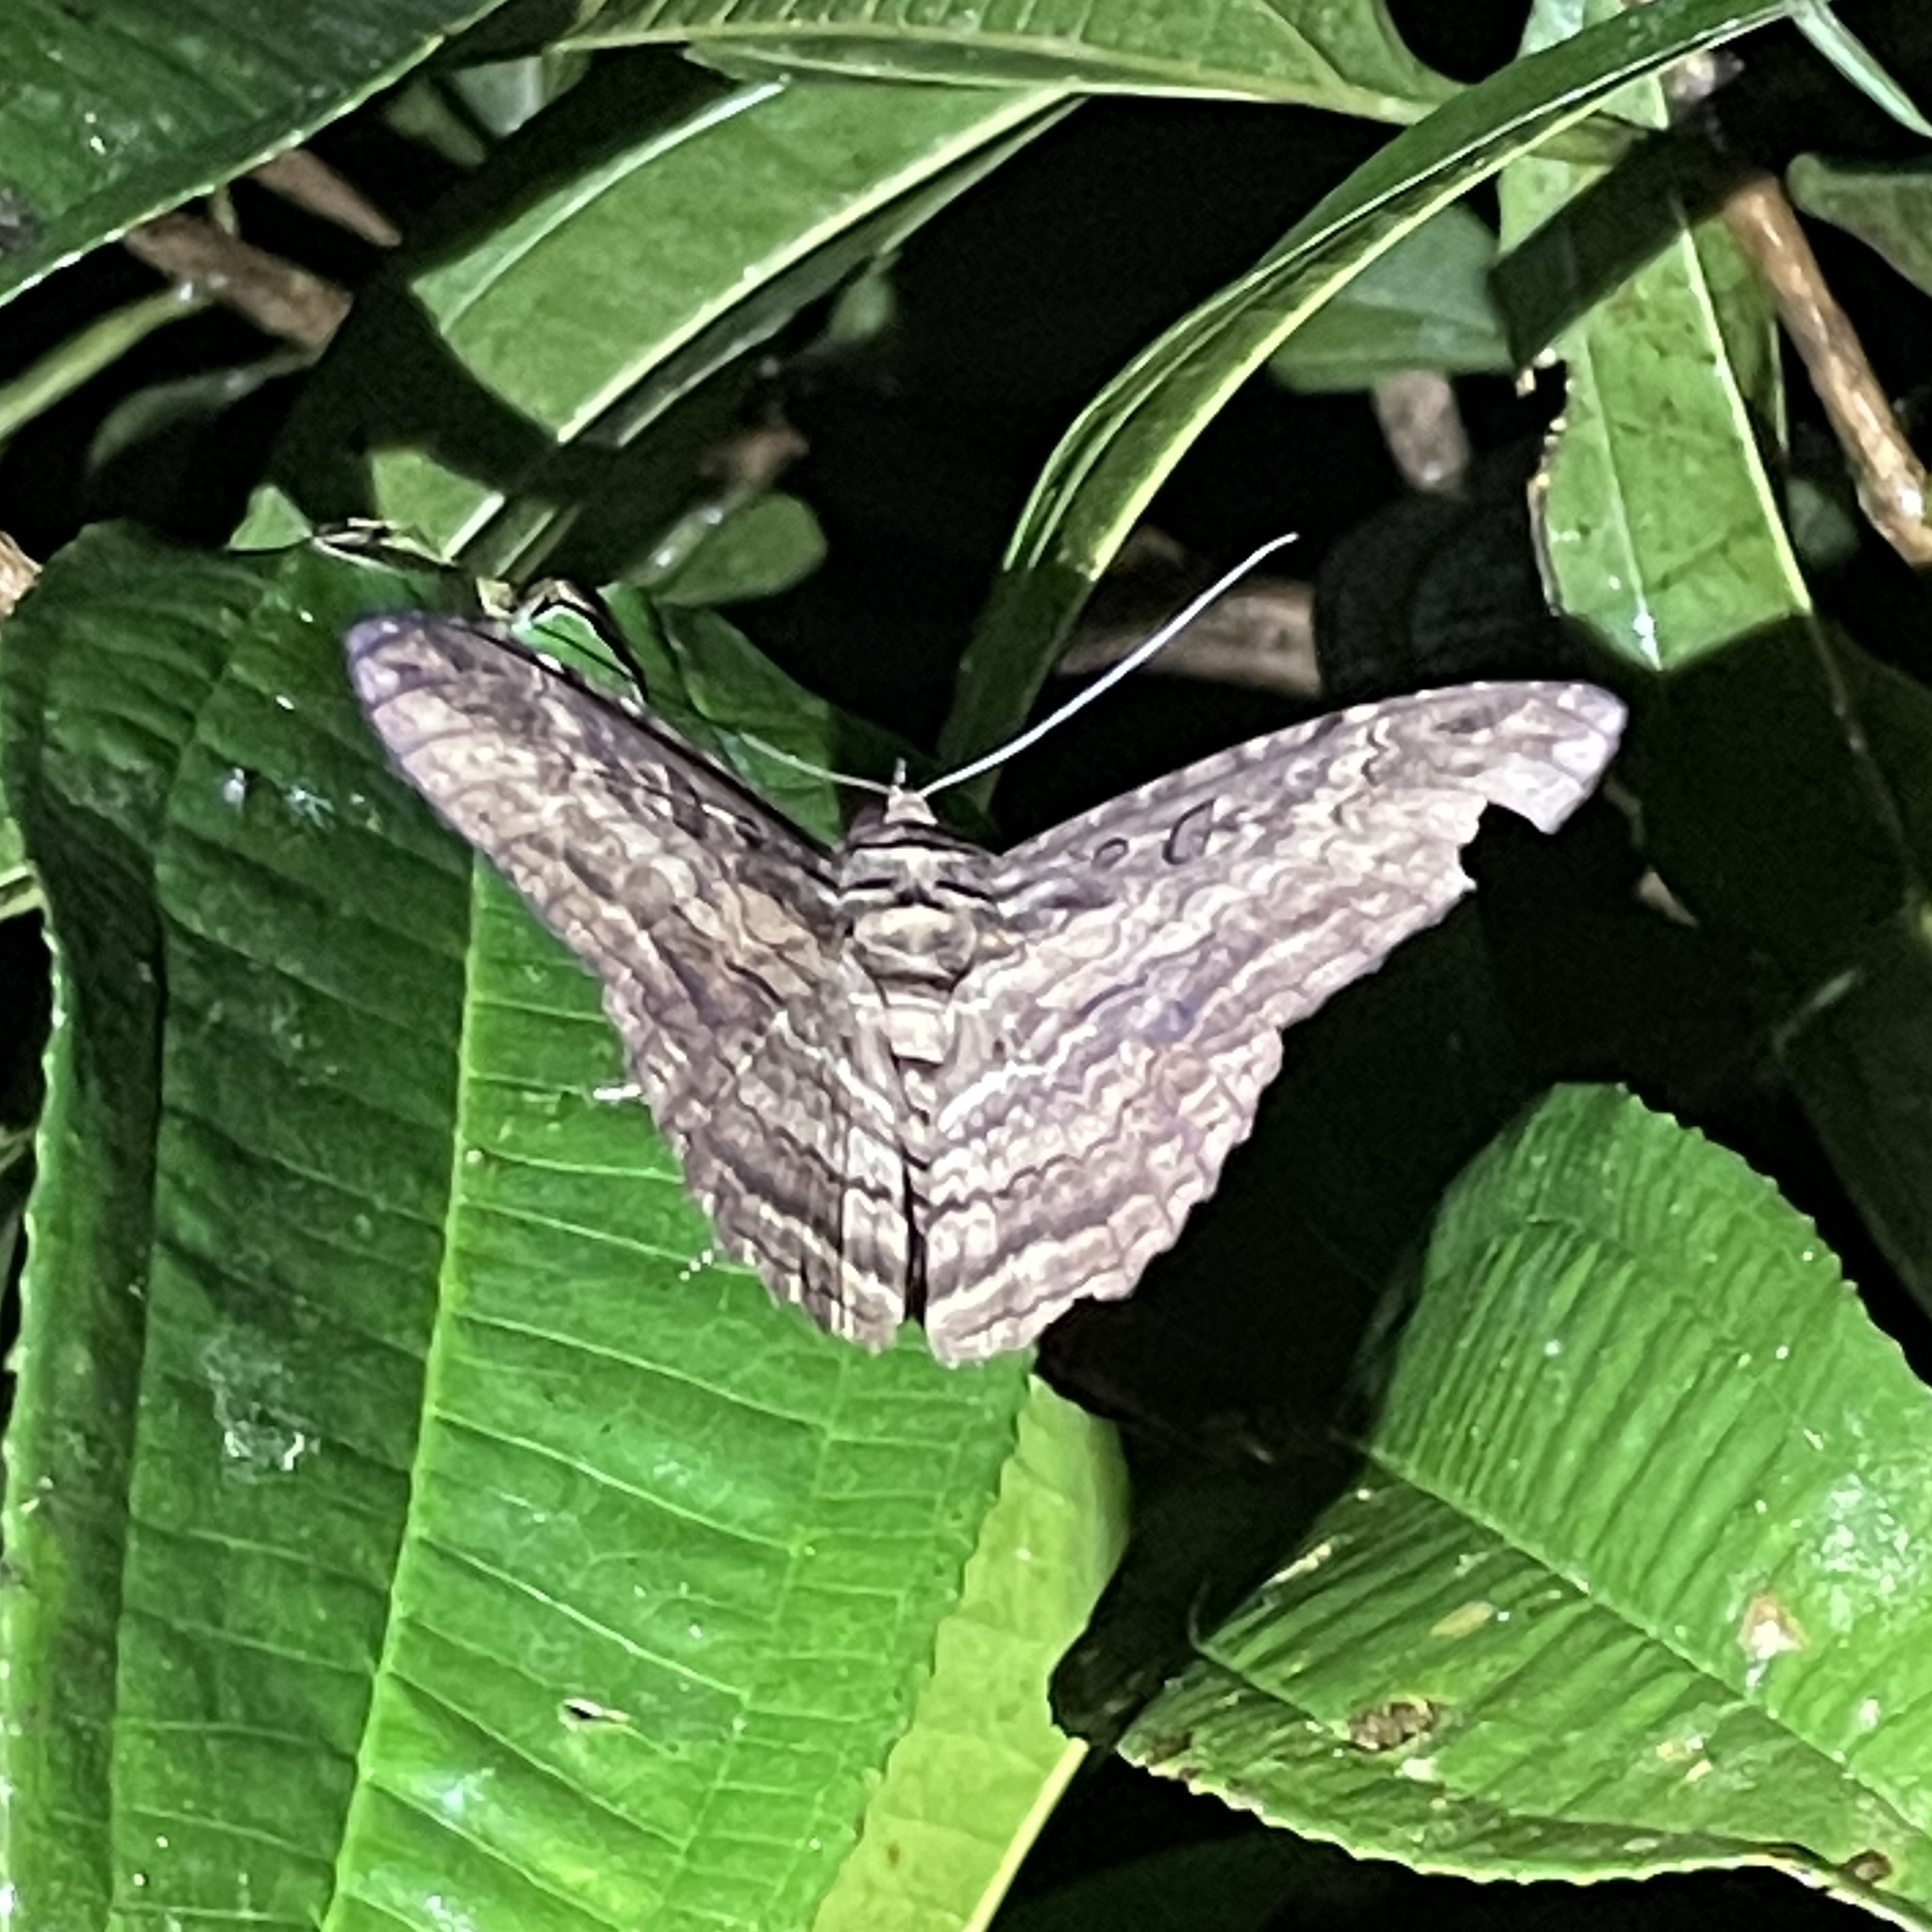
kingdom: Animalia
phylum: Arthropoda
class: Insecta
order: Lepidoptera
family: Erebidae
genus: Feigeria
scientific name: Feigeria scops
